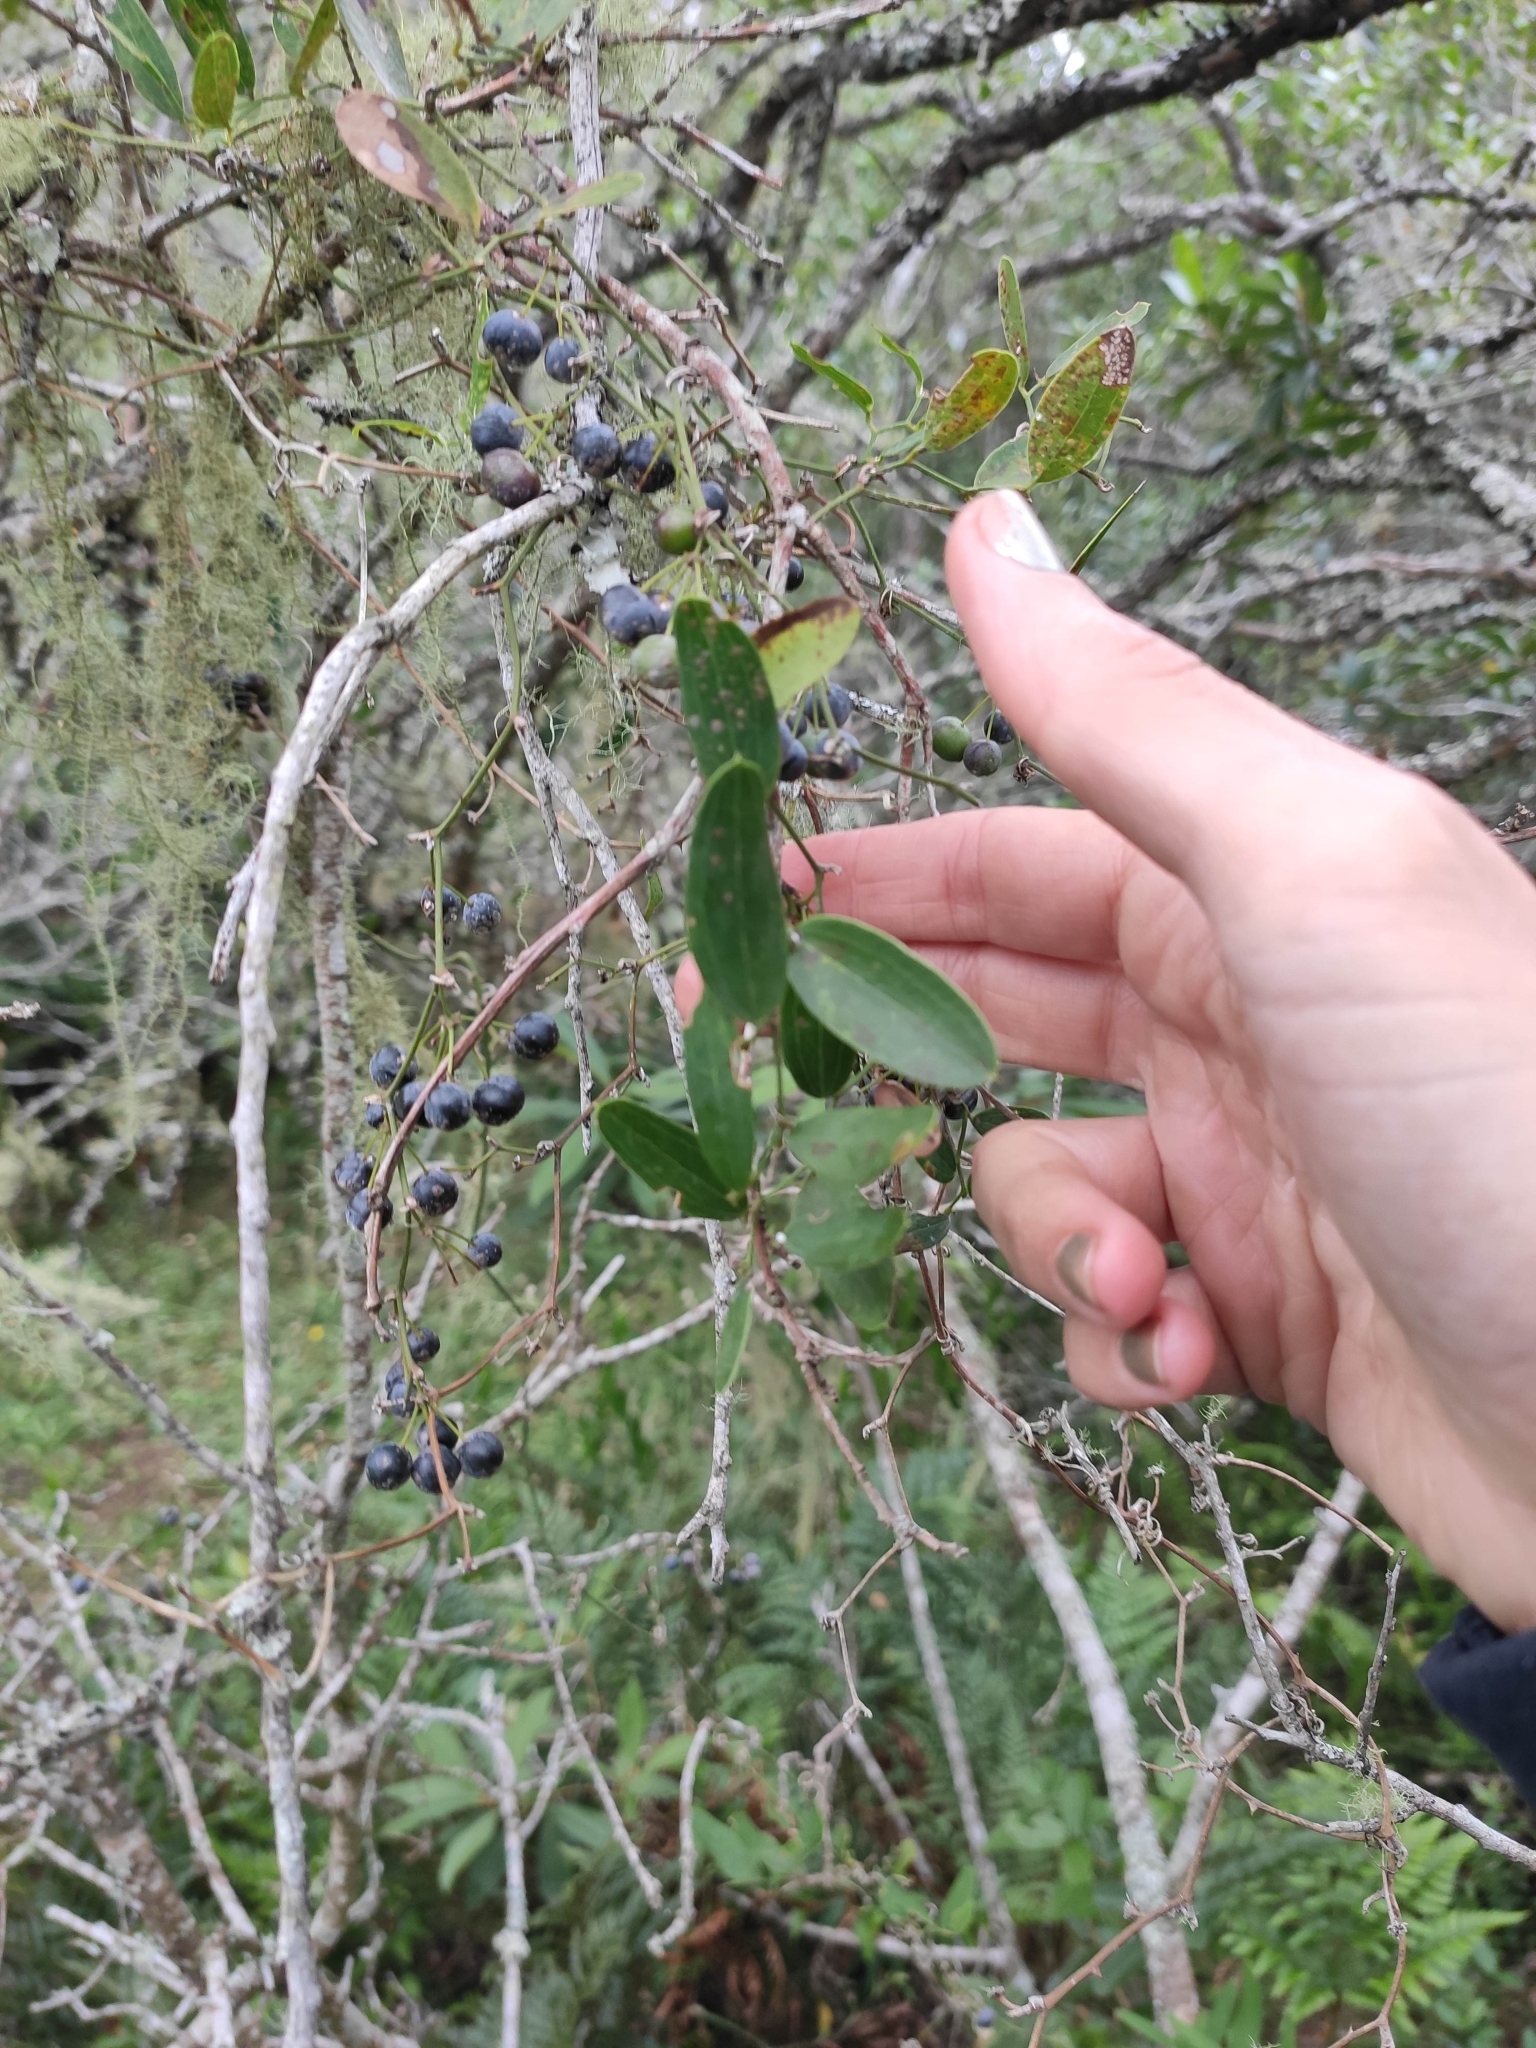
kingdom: Plantae
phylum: Tracheophyta
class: Liliopsida
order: Liliales
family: Smilacaceae
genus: Smilax
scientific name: Smilax campestris
